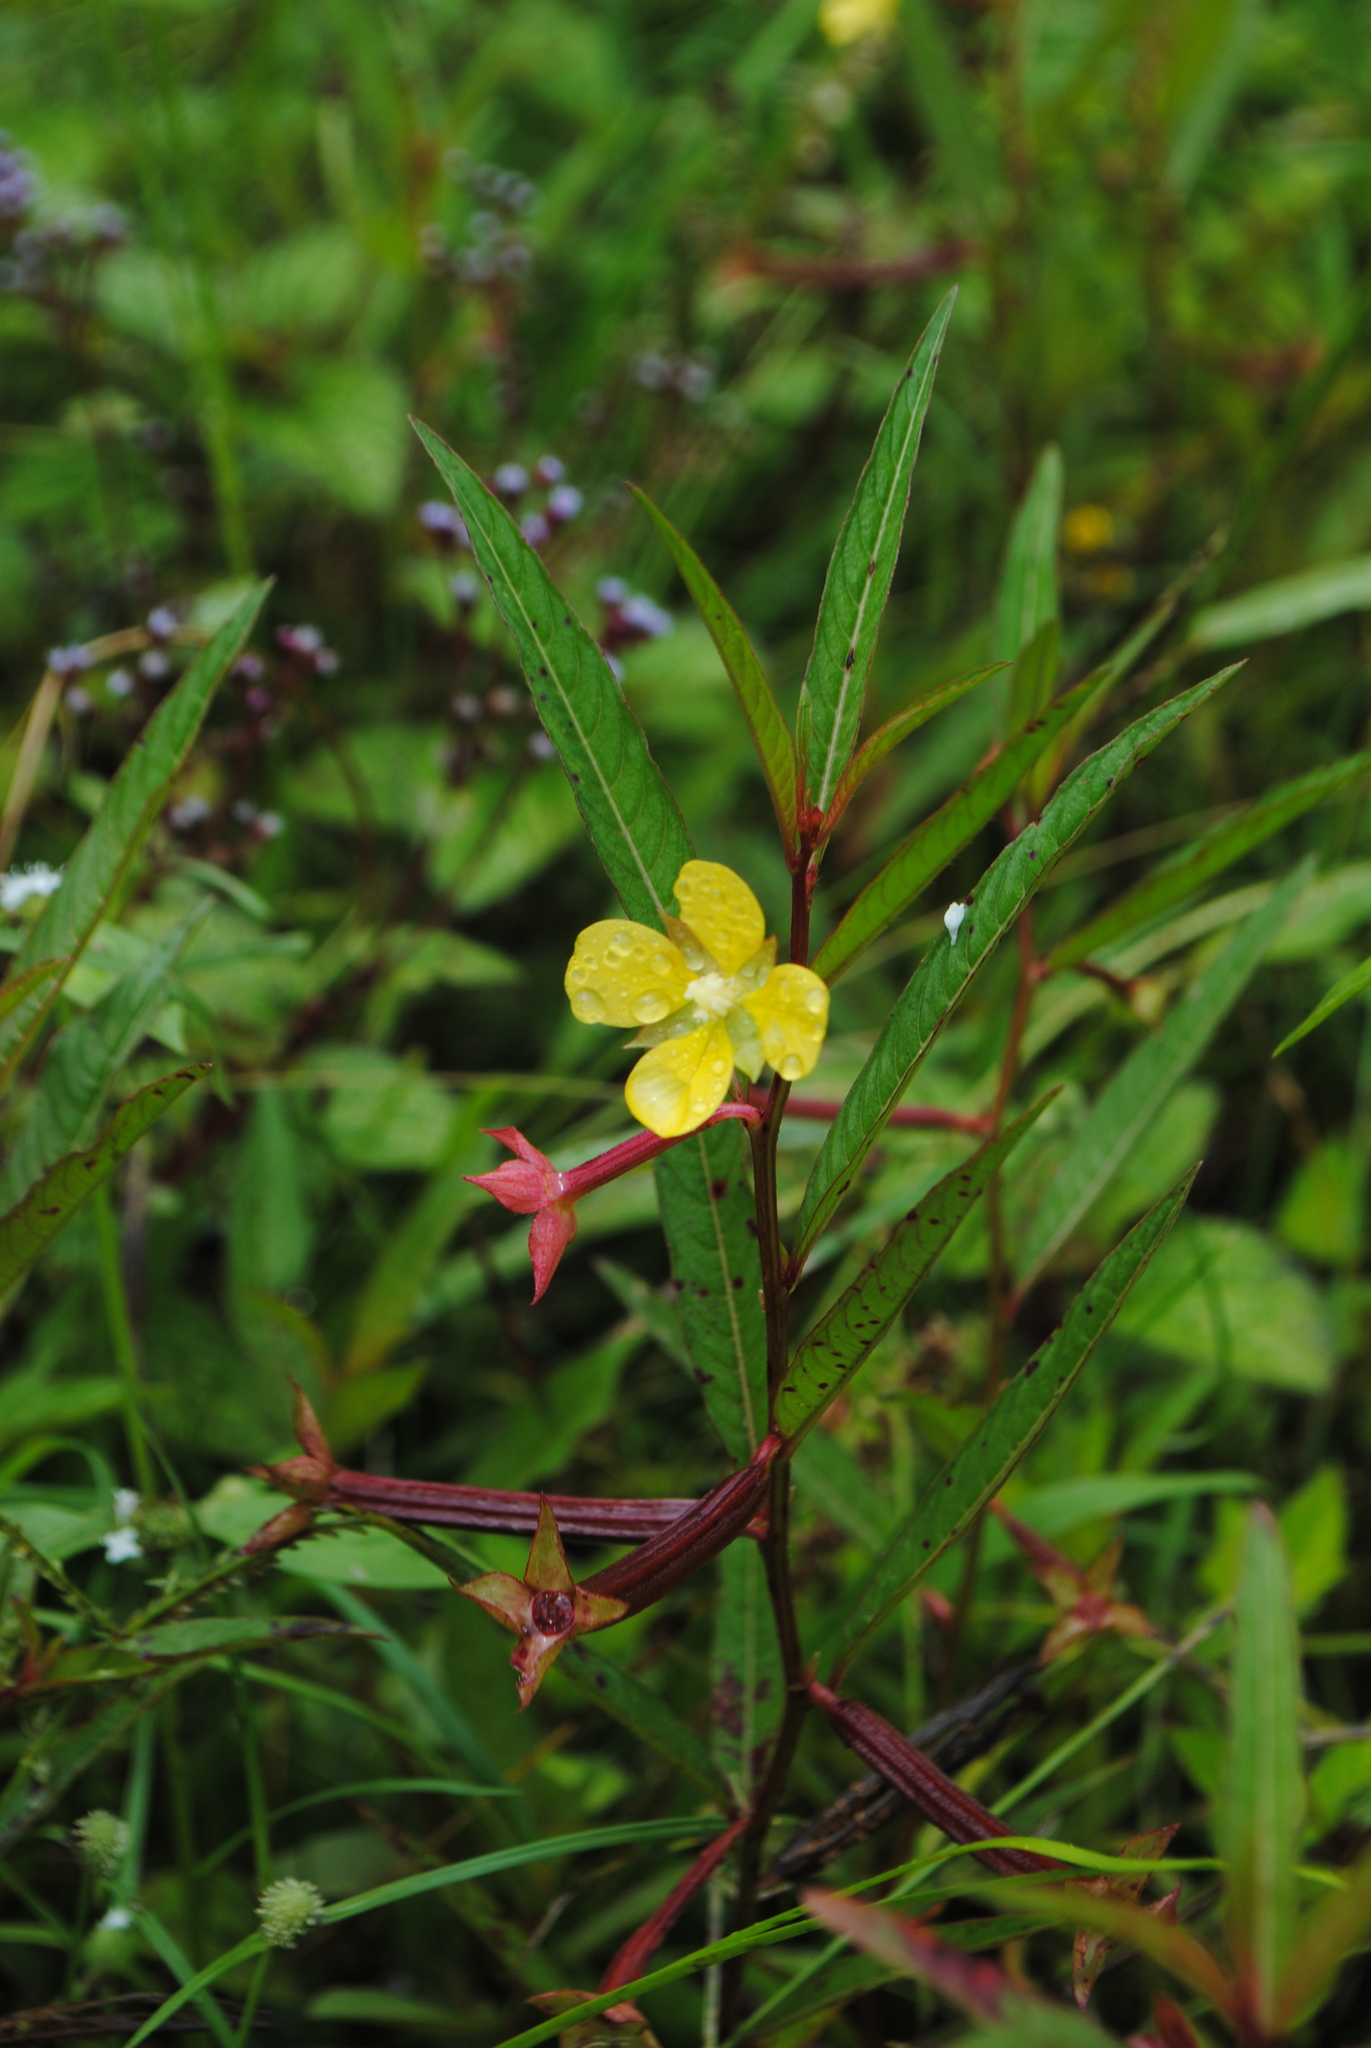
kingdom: Plantae
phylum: Tracheophyta
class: Magnoliopsida
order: Myrtales
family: Onagraceae
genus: Ludwigia
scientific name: Ludwigia erecta
